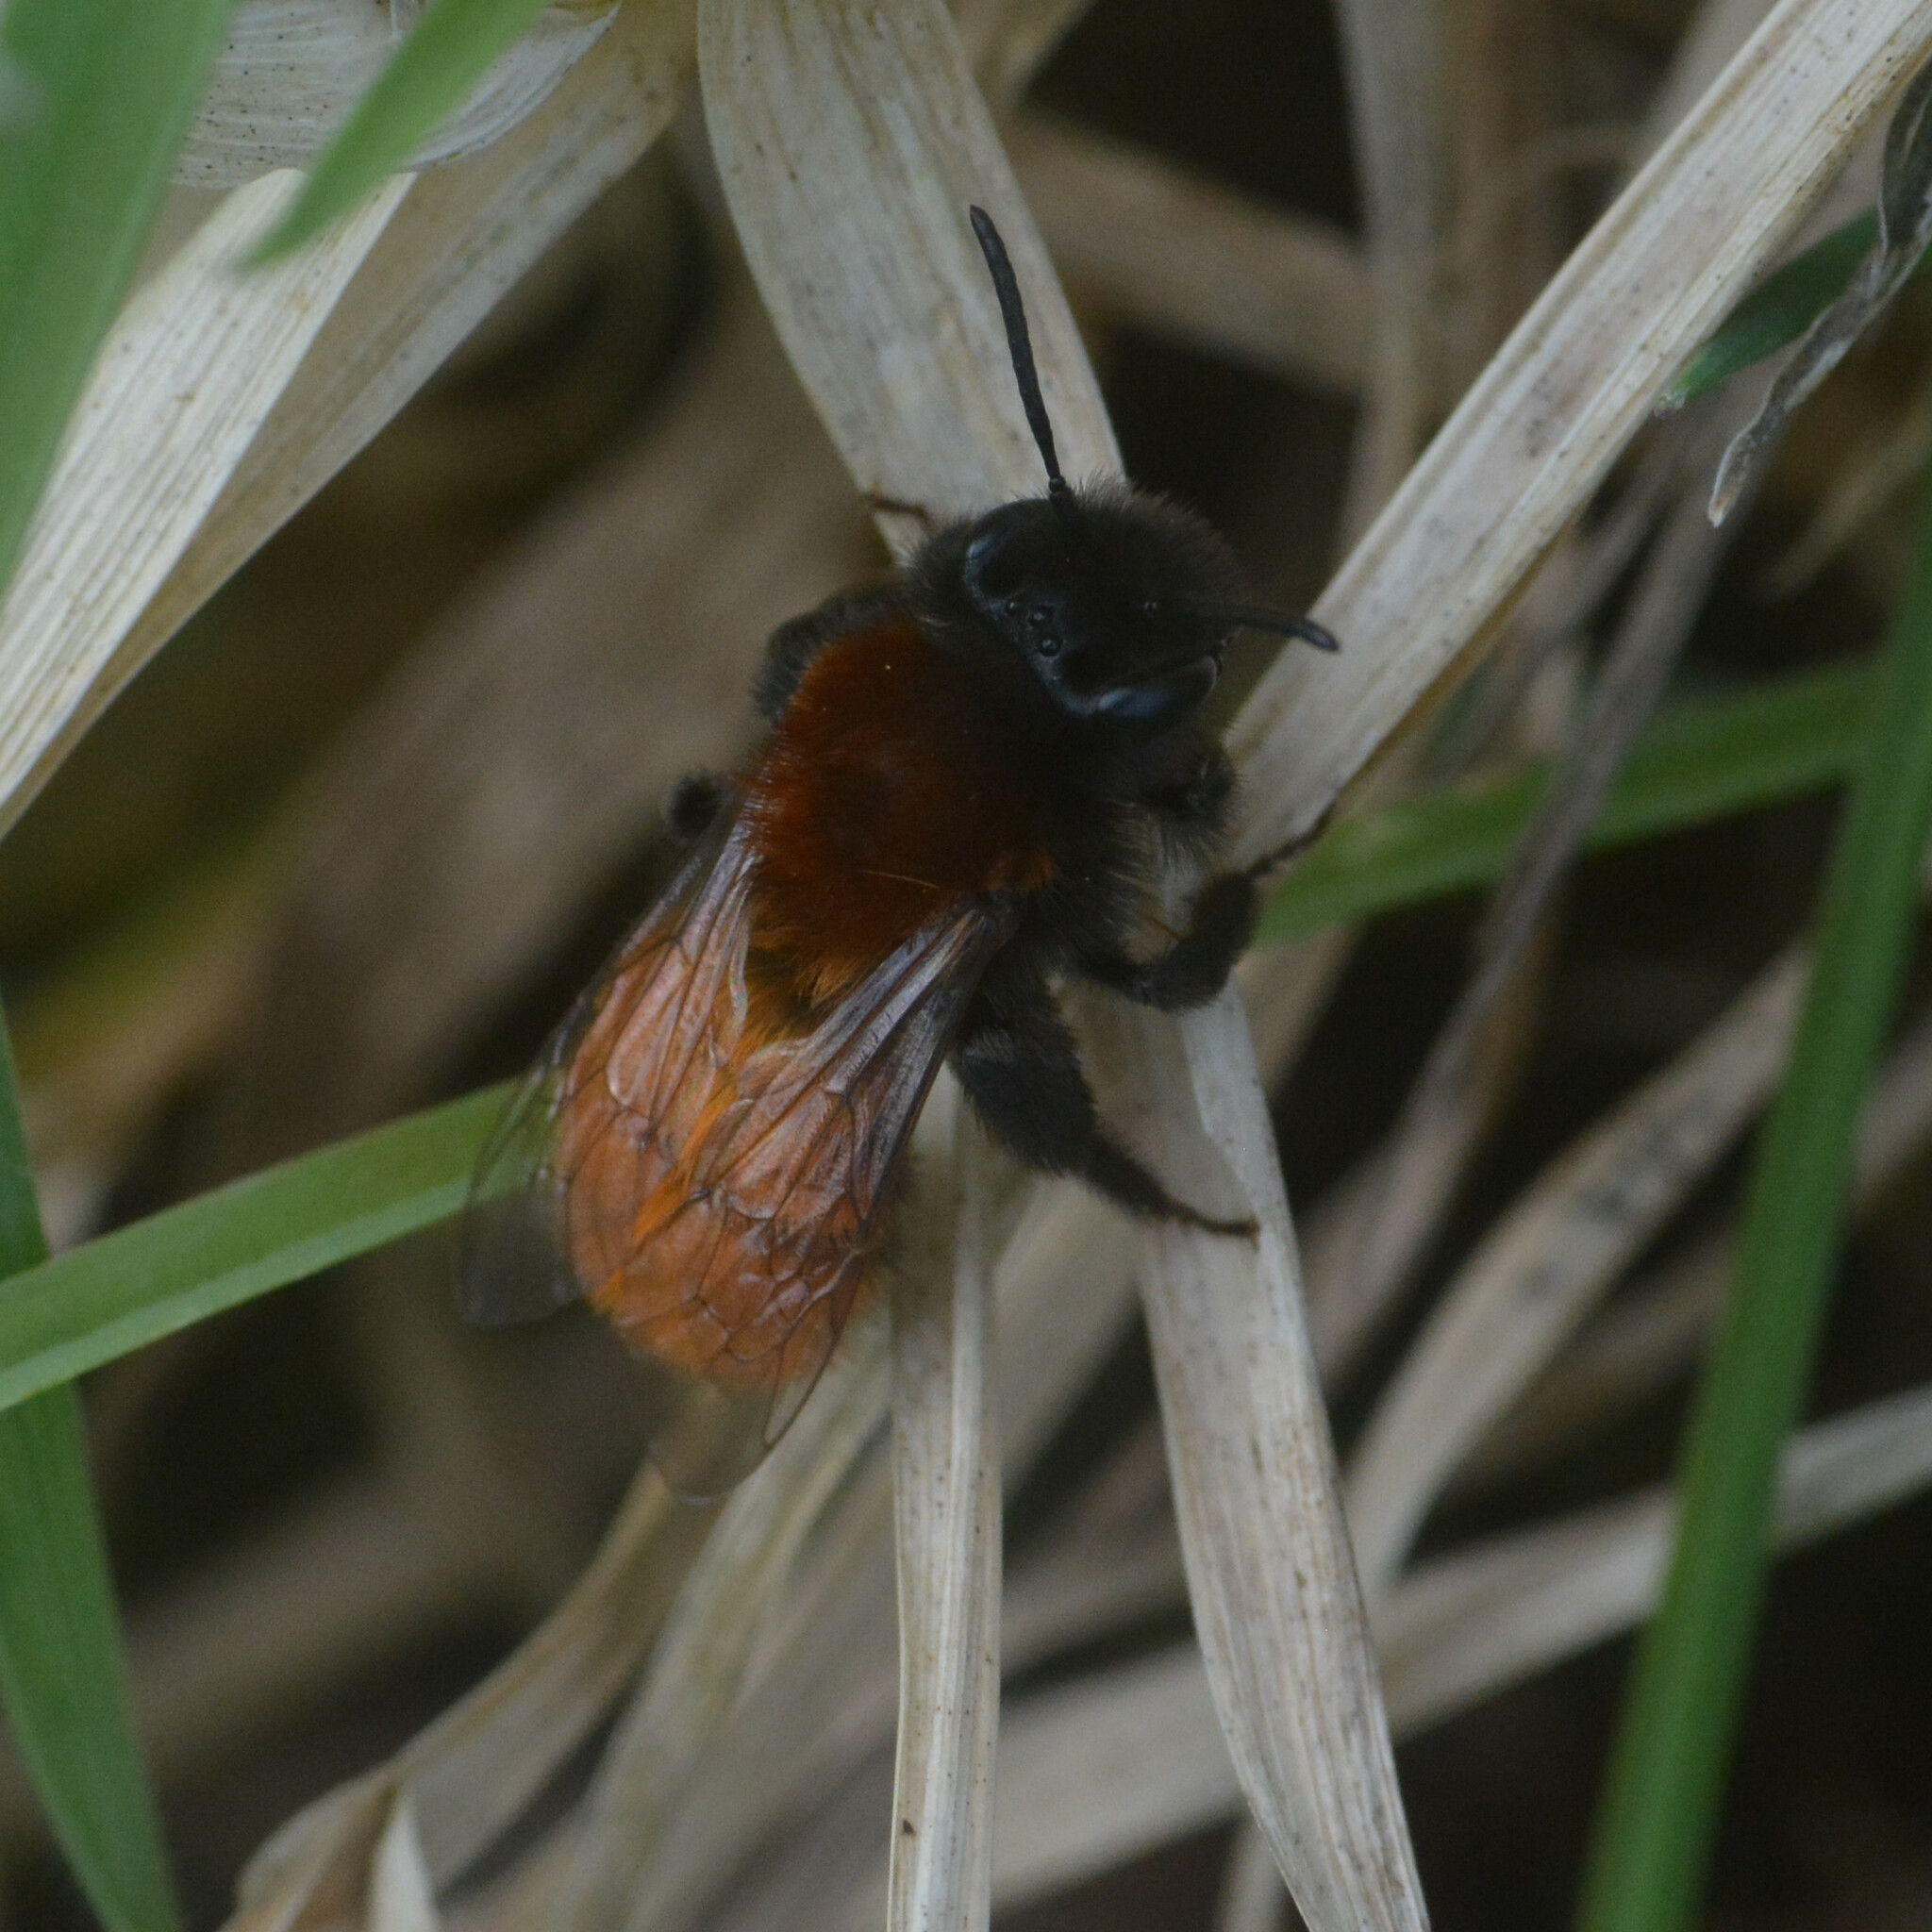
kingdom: Animalia
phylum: Arthropoda
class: Insecta
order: Hymenoptera
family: Andrenidae
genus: Andrena
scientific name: Andrena fulva
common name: Tawny mining bee
